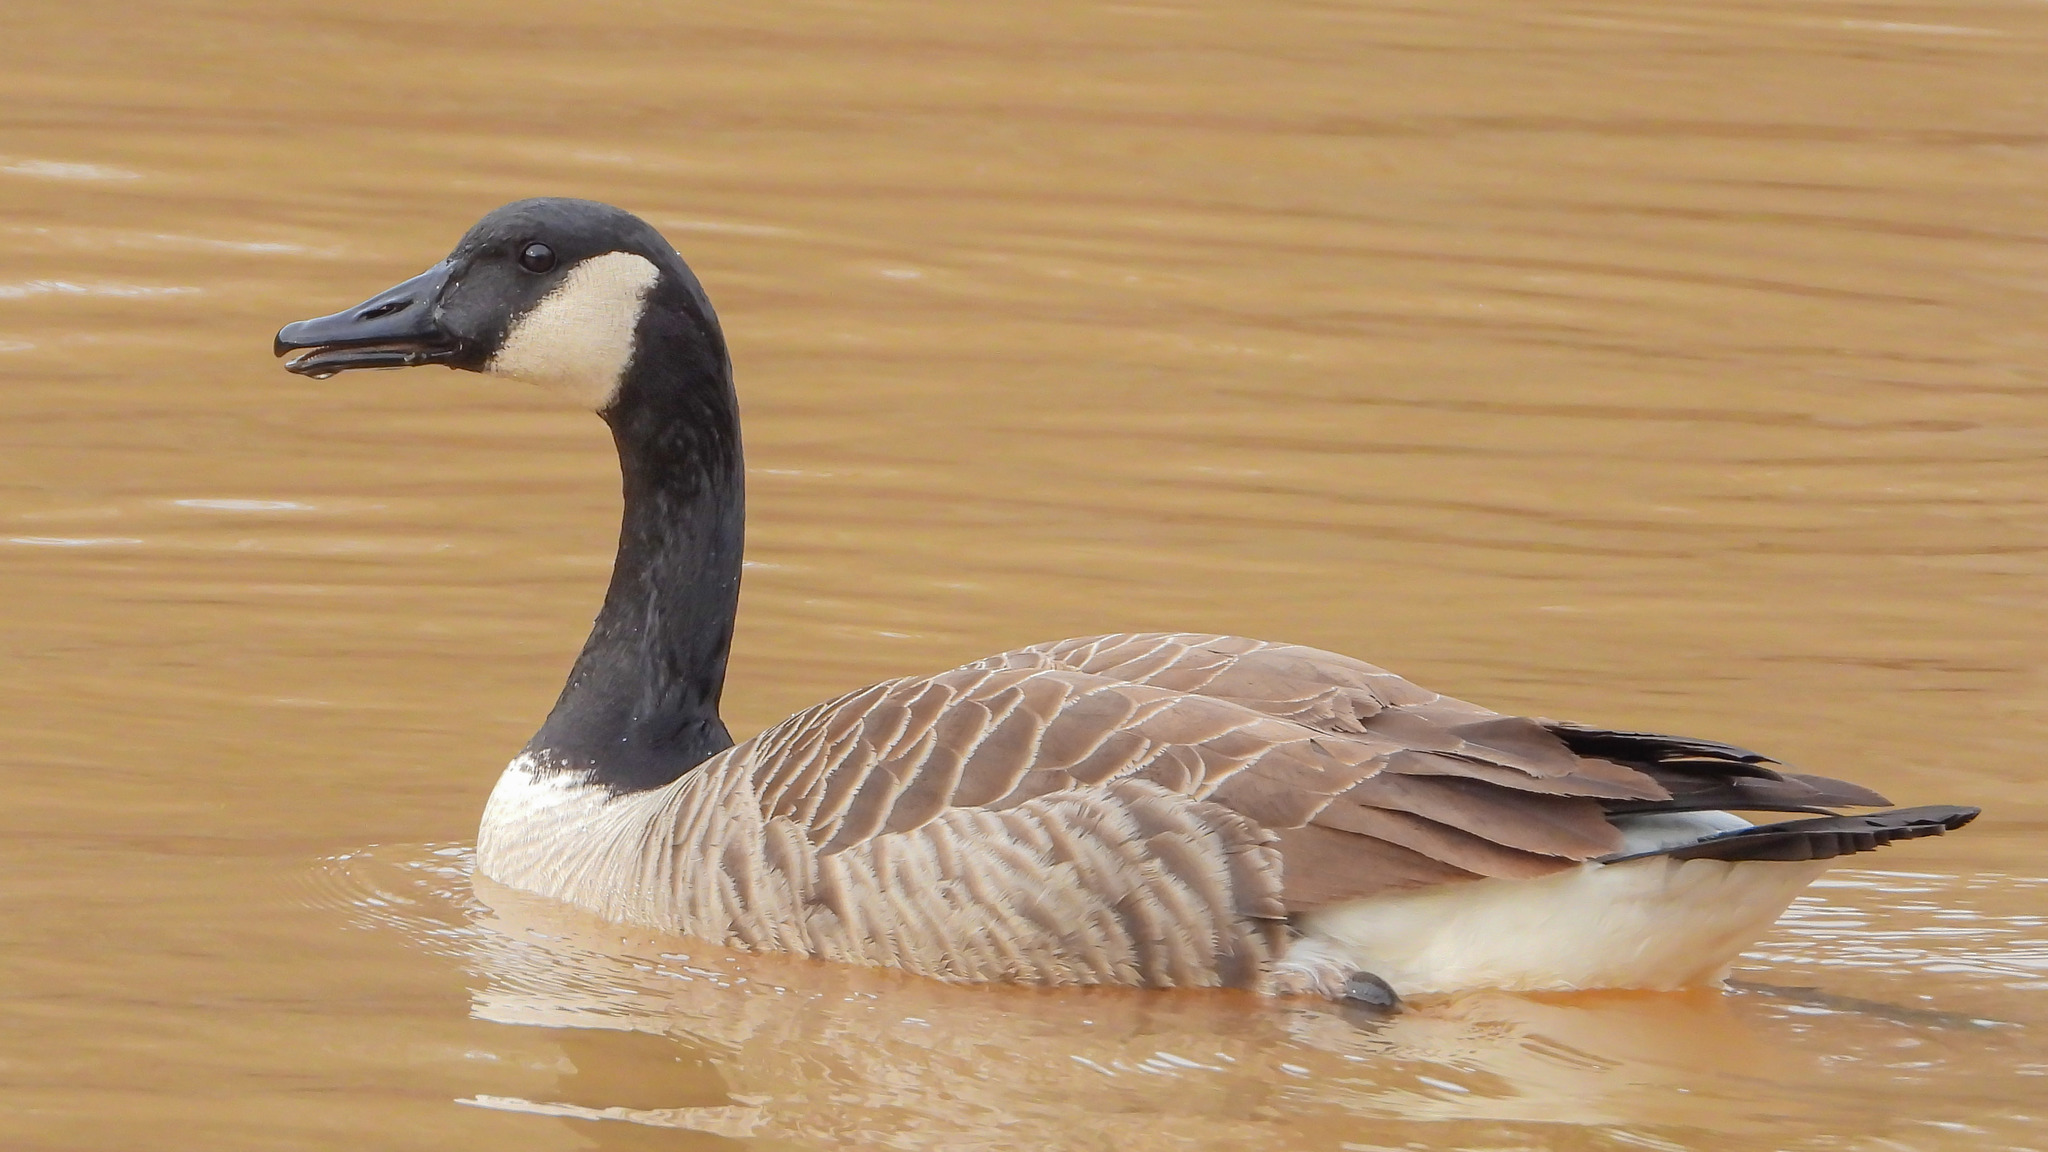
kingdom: Animalia
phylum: Chordata
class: Aves
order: Anseriformes
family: Anatidae
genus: Branta
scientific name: Branta canadensis
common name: Canada goose
